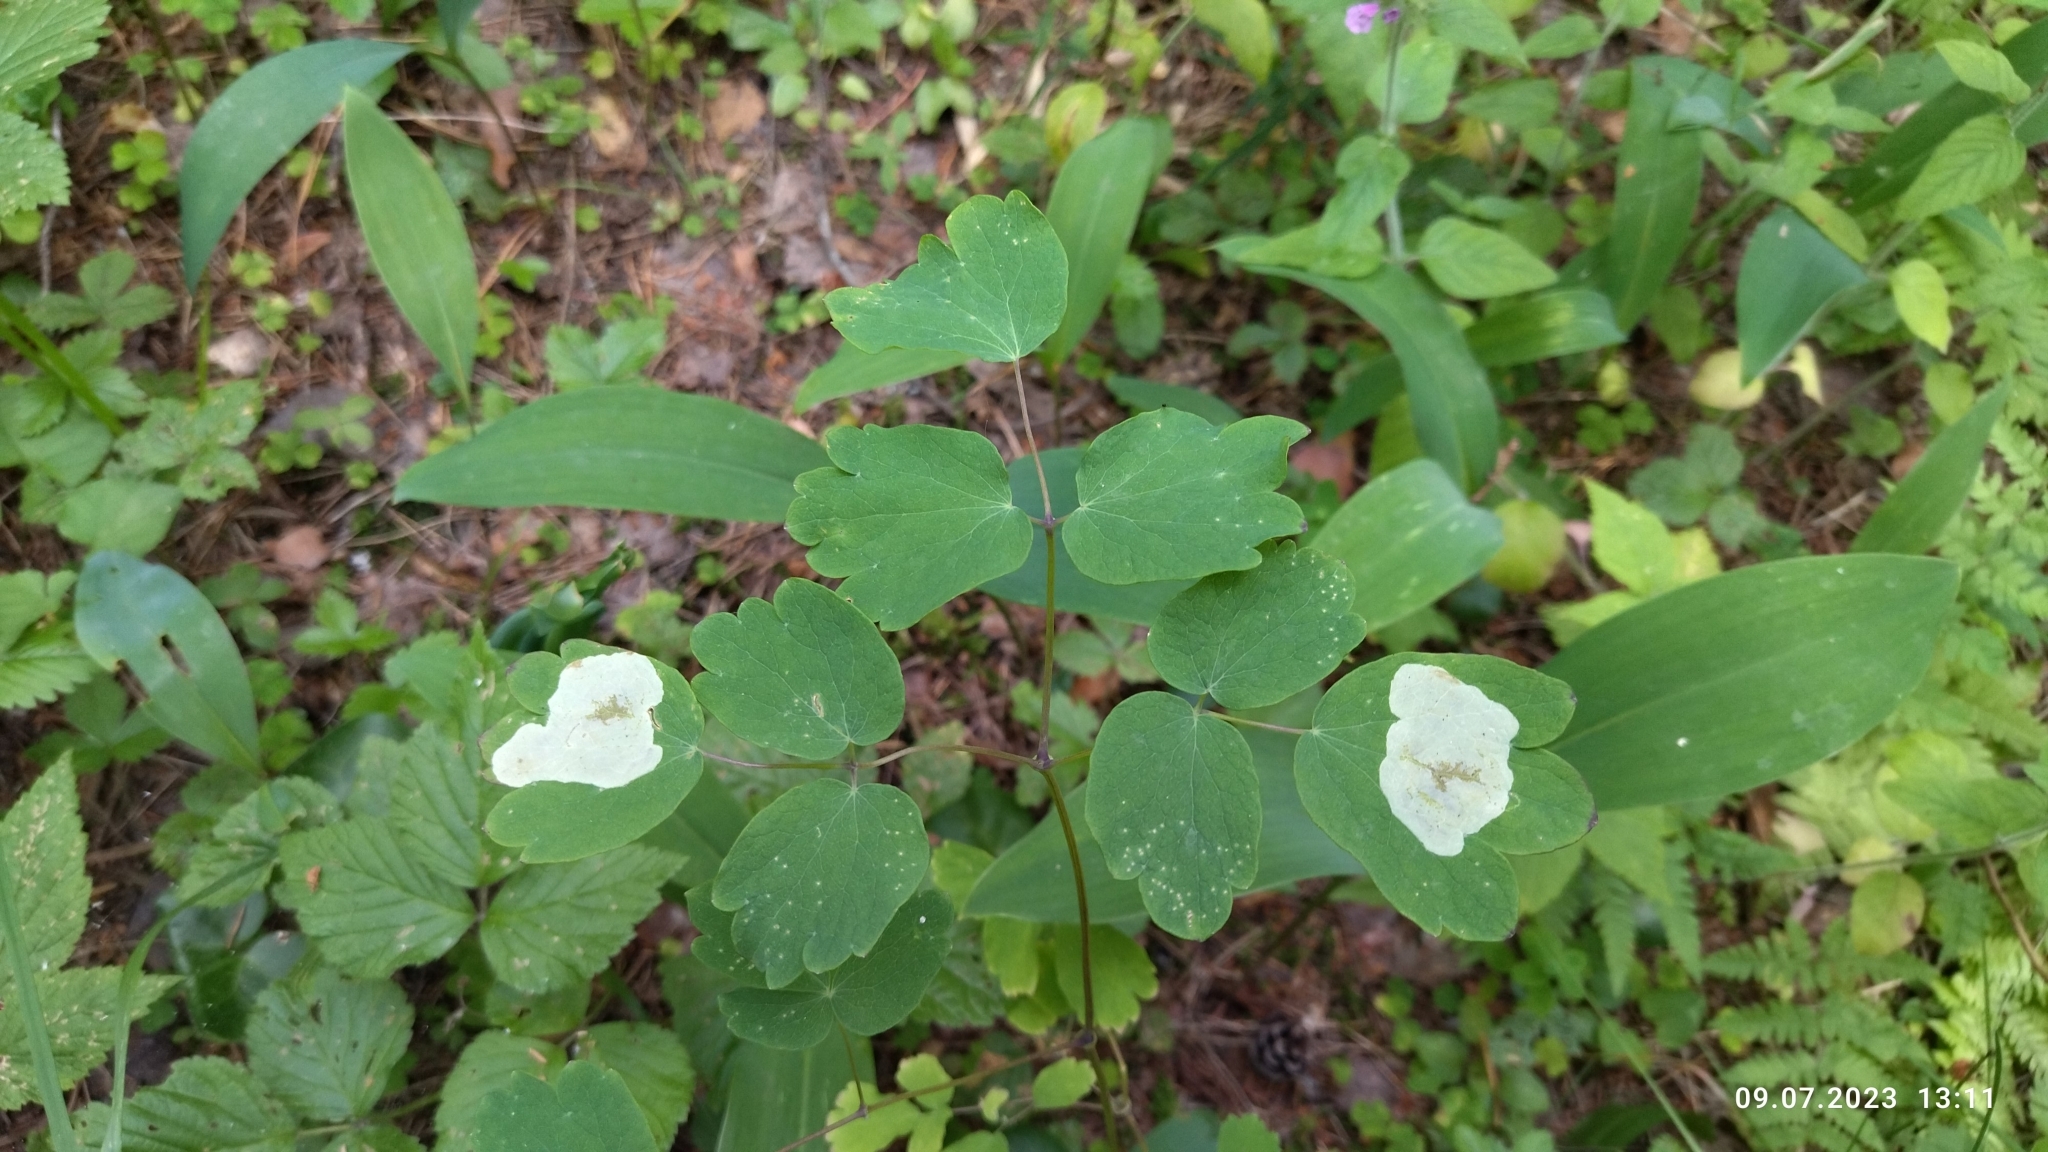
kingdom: Plantae
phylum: Tracheophyta
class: Magnoliopsida
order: Ranunculales
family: Ranunculaceae
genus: Thalictrum
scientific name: Thalictrum aquilegiifolium
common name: French meadow-rue
